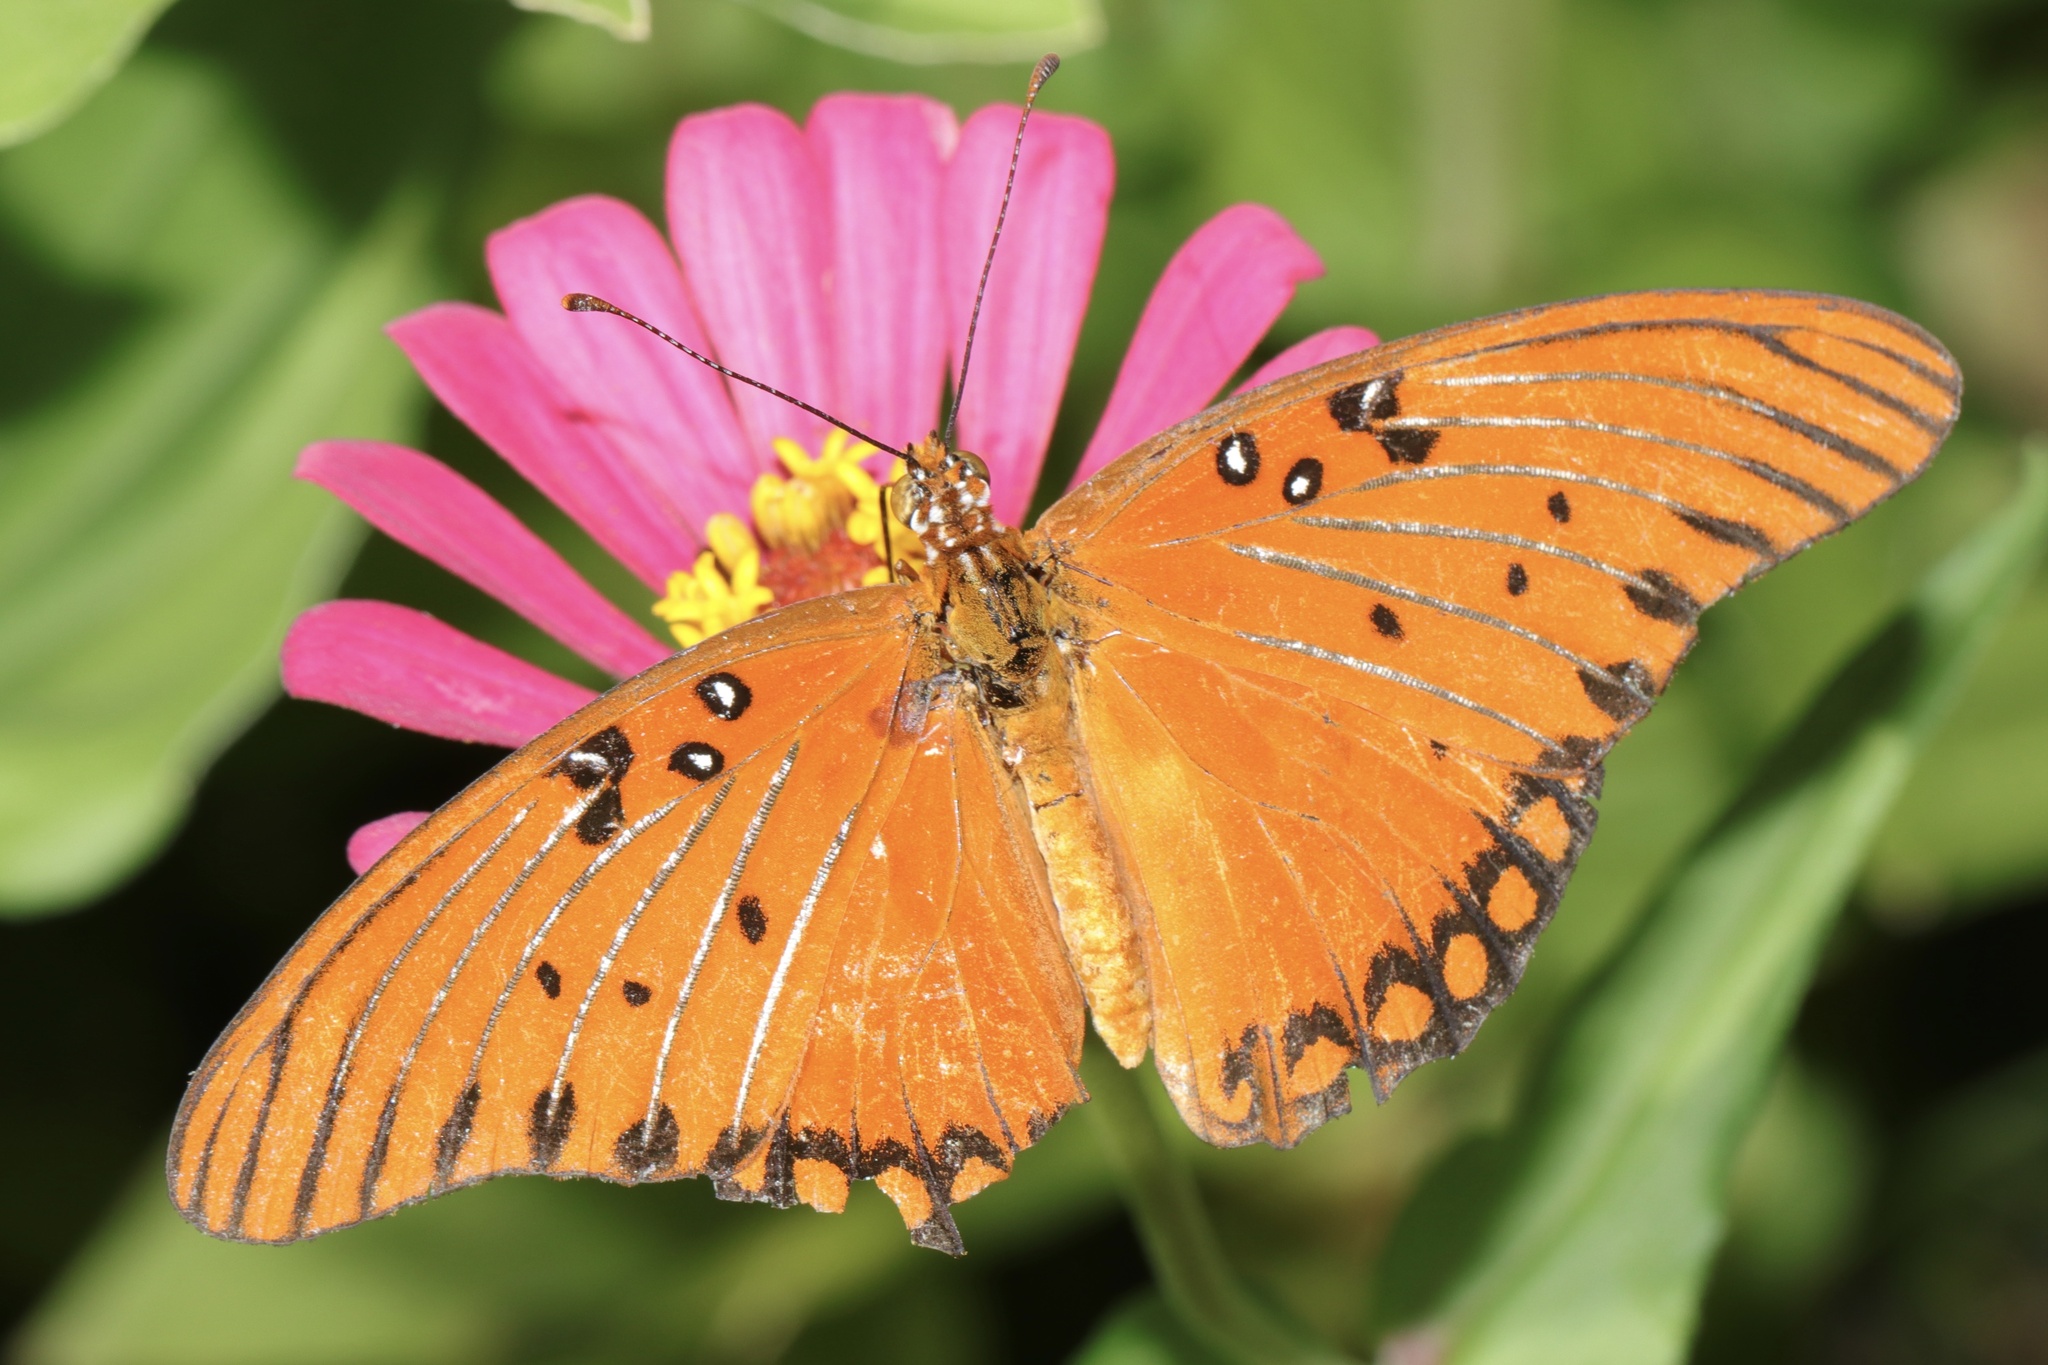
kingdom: Animalia
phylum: Arthropoda
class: Insecta
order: Lepidoptera
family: Nymphalidae
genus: Dione
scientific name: Dione vanillae
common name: Gulf fritillary
